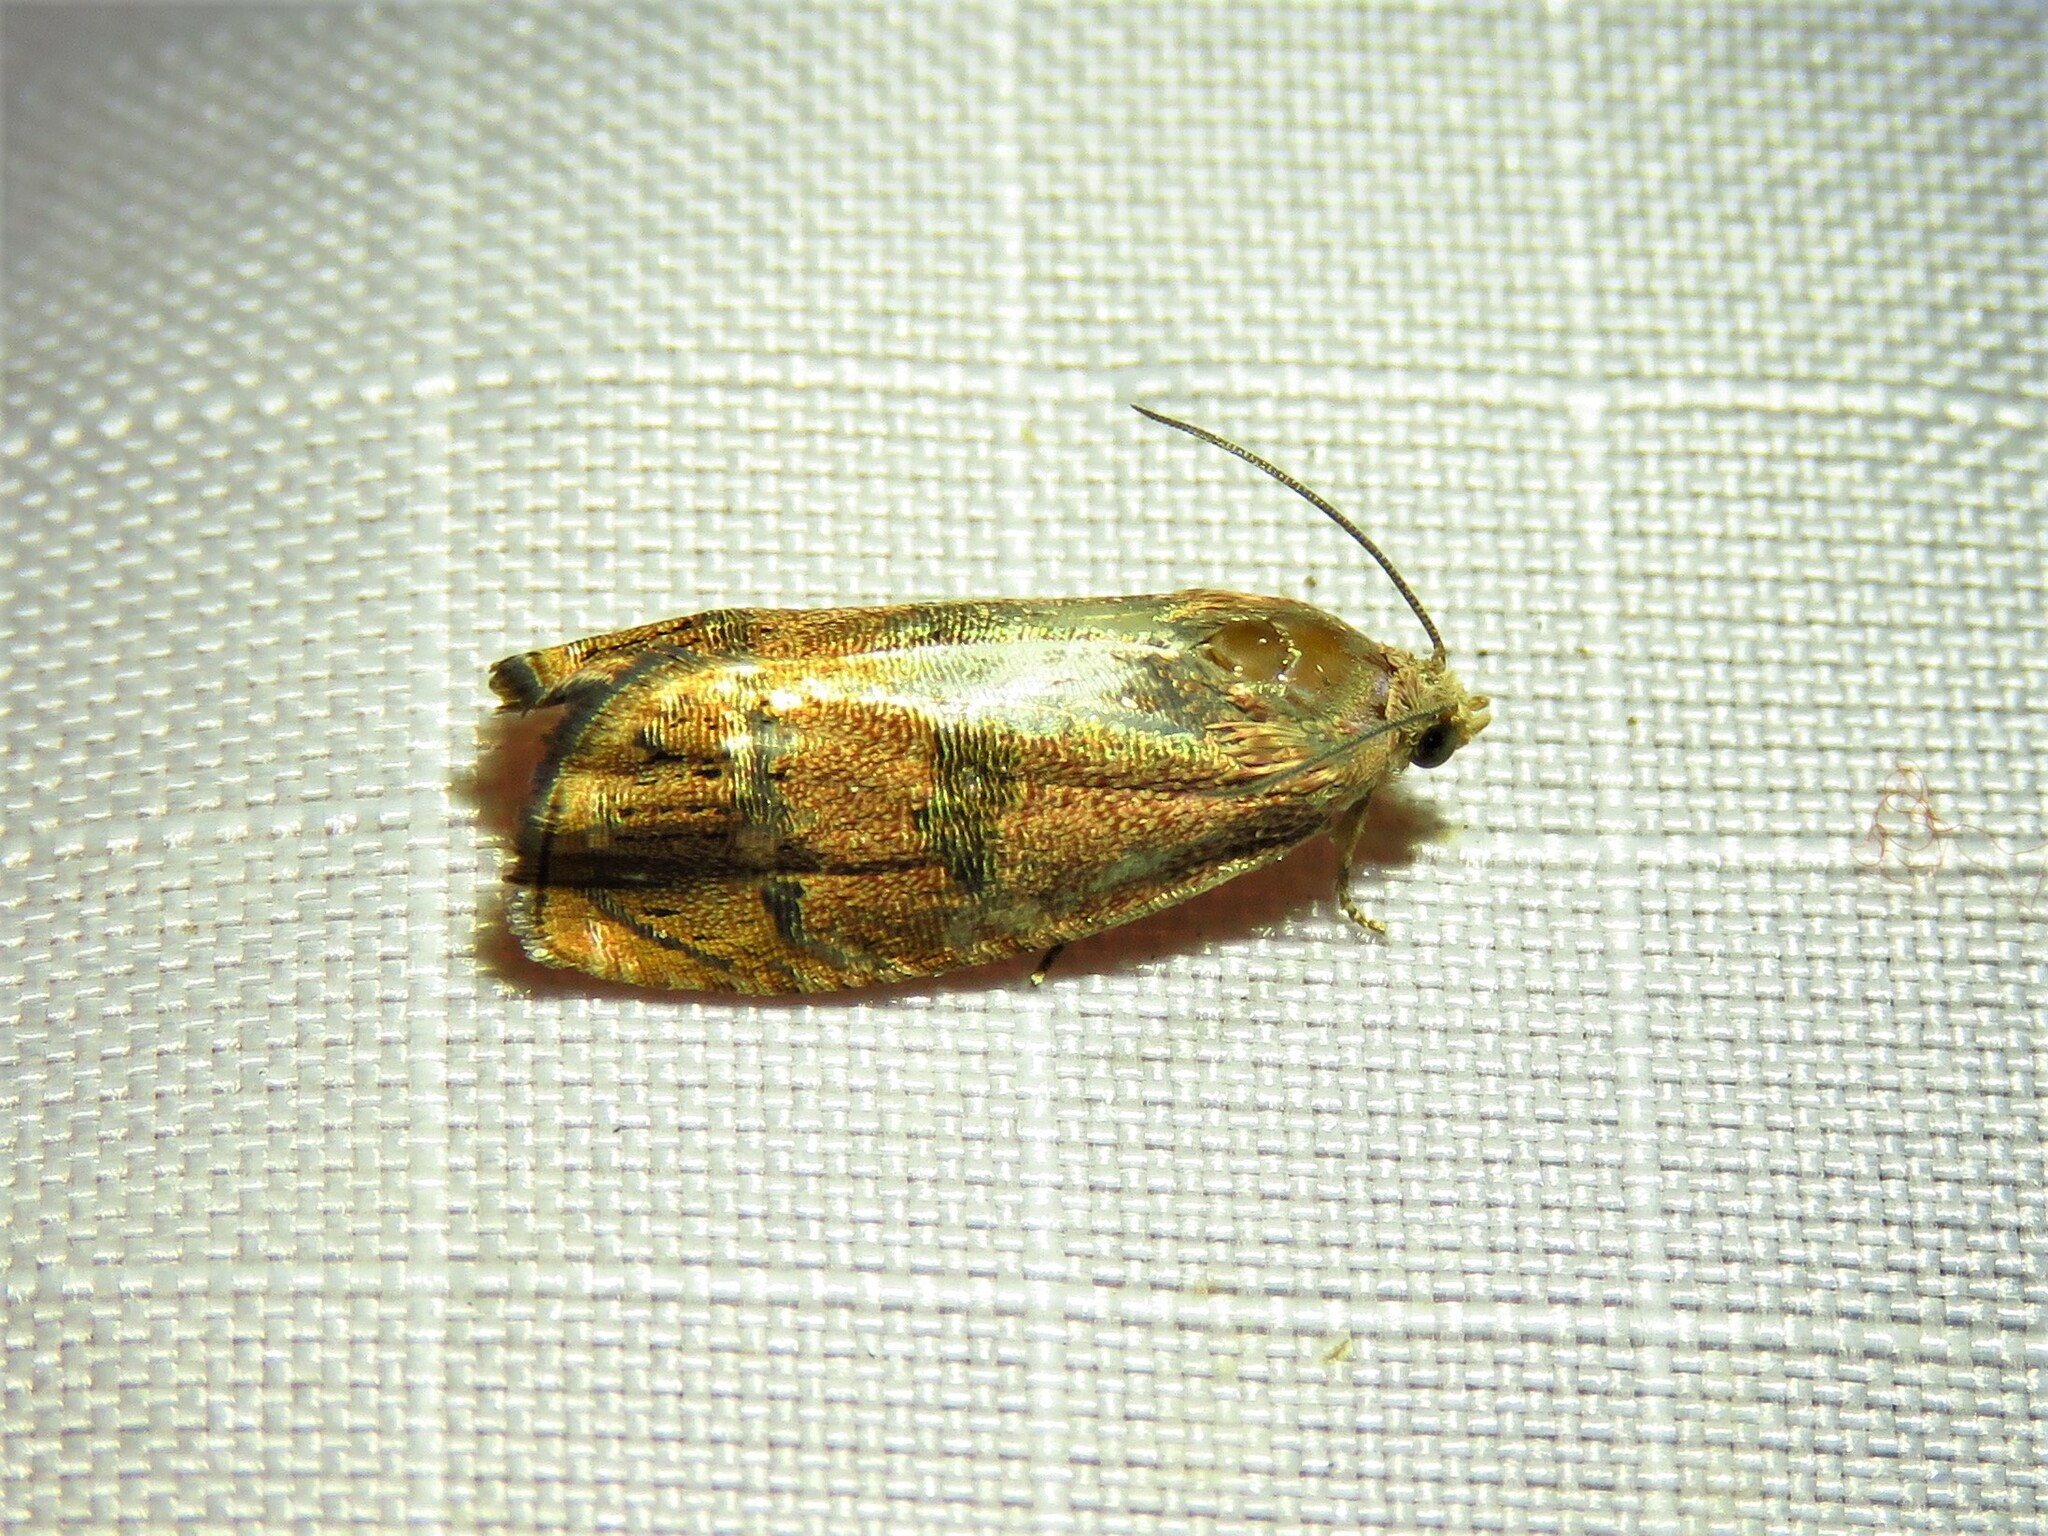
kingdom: Animalia
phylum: Arthropoda
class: Insecta
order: Lepidoptera
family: Tortricidae
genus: Cydia
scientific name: Cydia latiferreana
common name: Filbertworm moth
